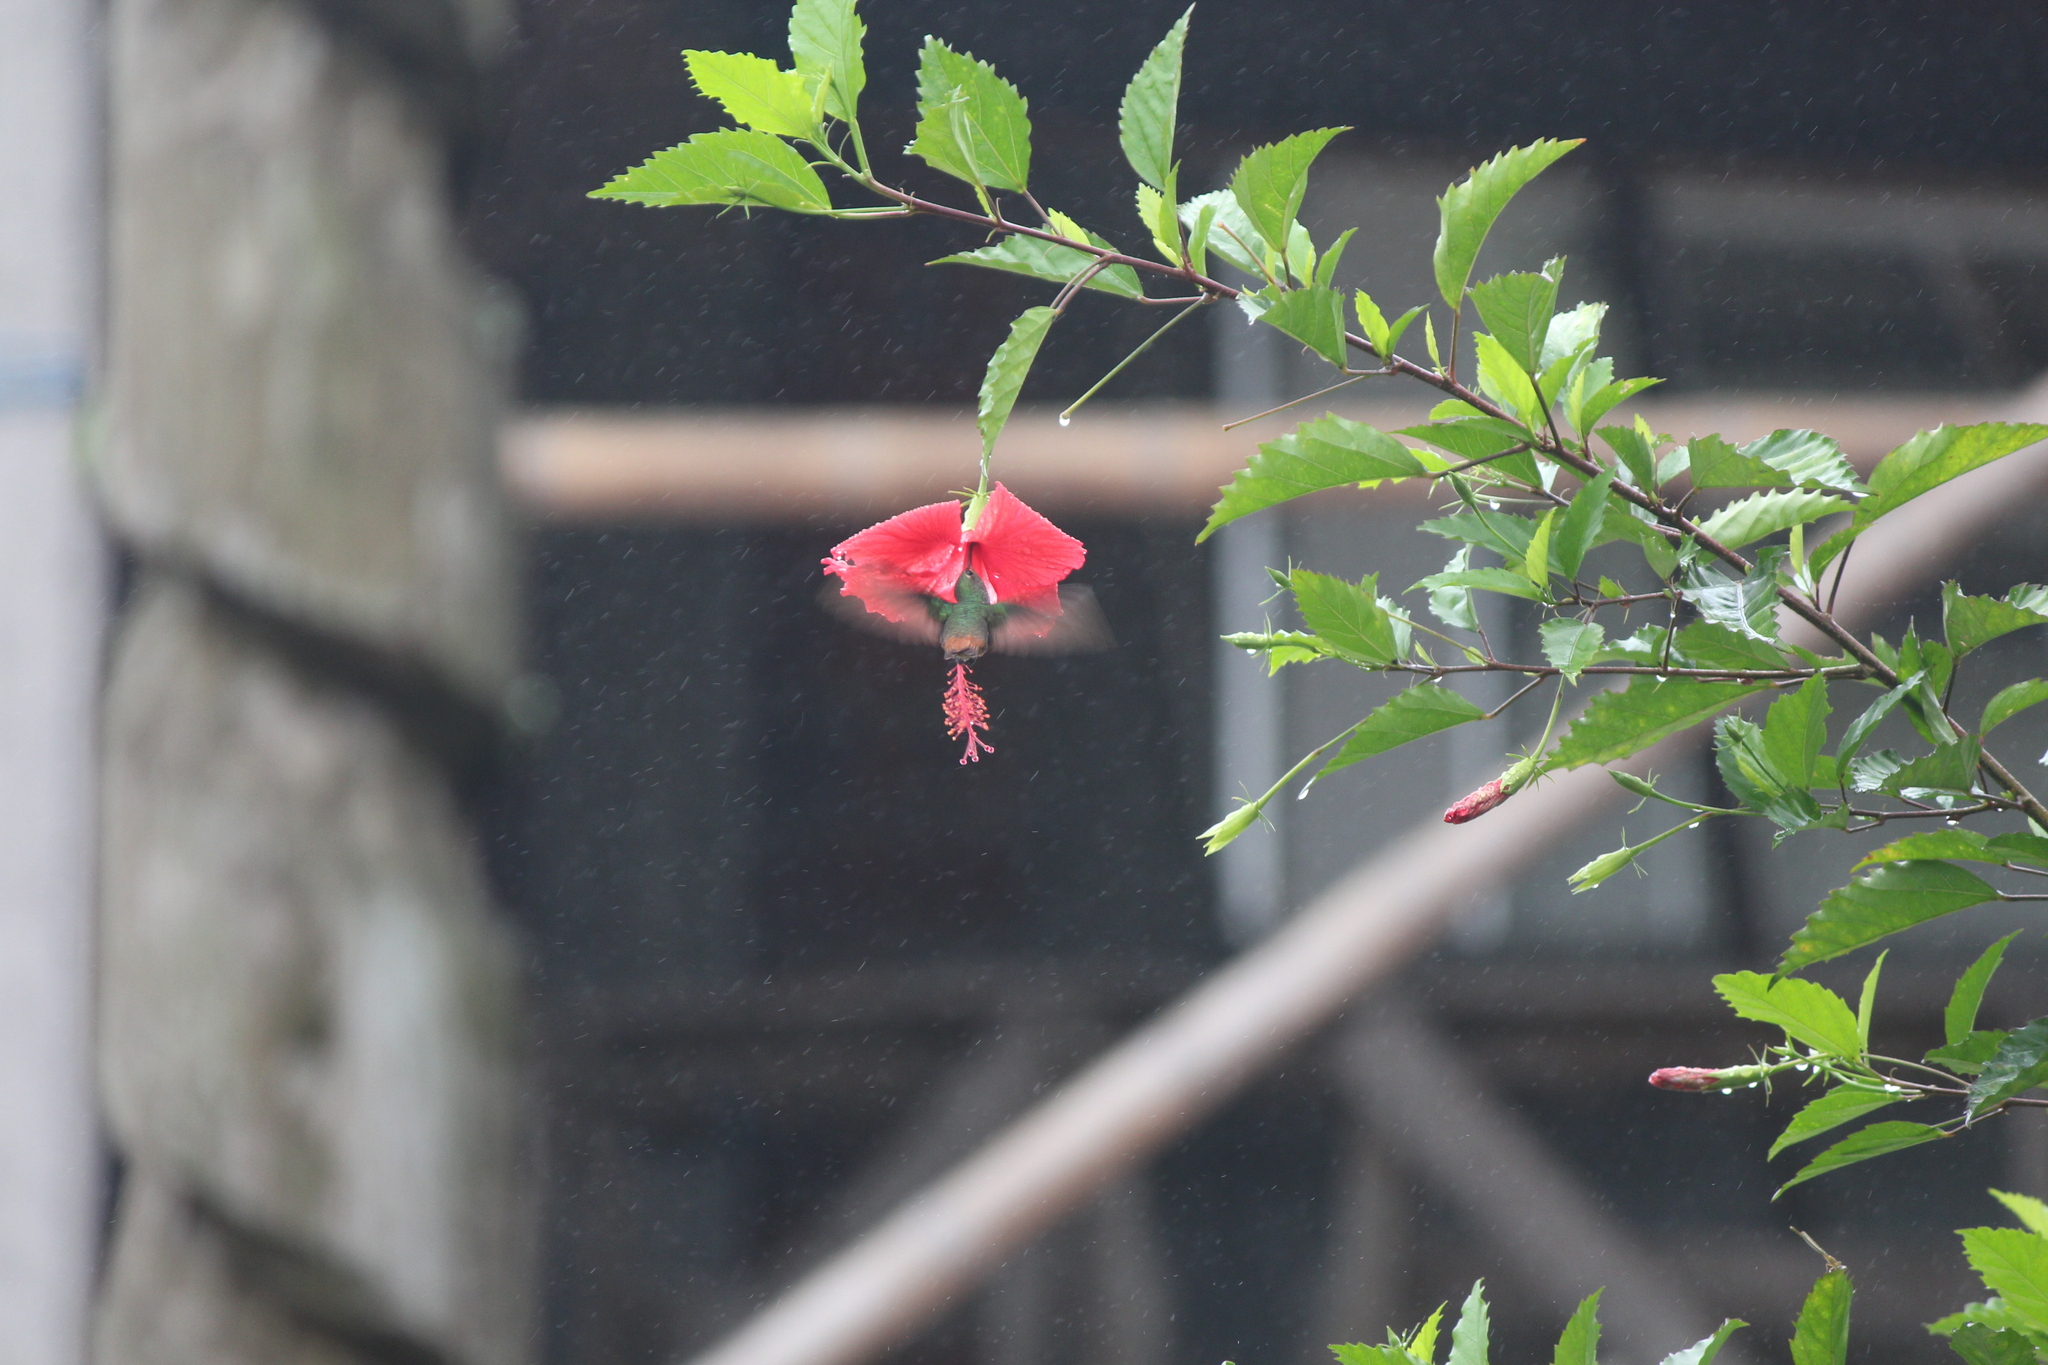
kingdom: Animalia
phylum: Chordata
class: Aves
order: Apodiformes
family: Trochilidae
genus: Amazilis
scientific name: Amazilis amazilia
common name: Amazilia hummingbird
